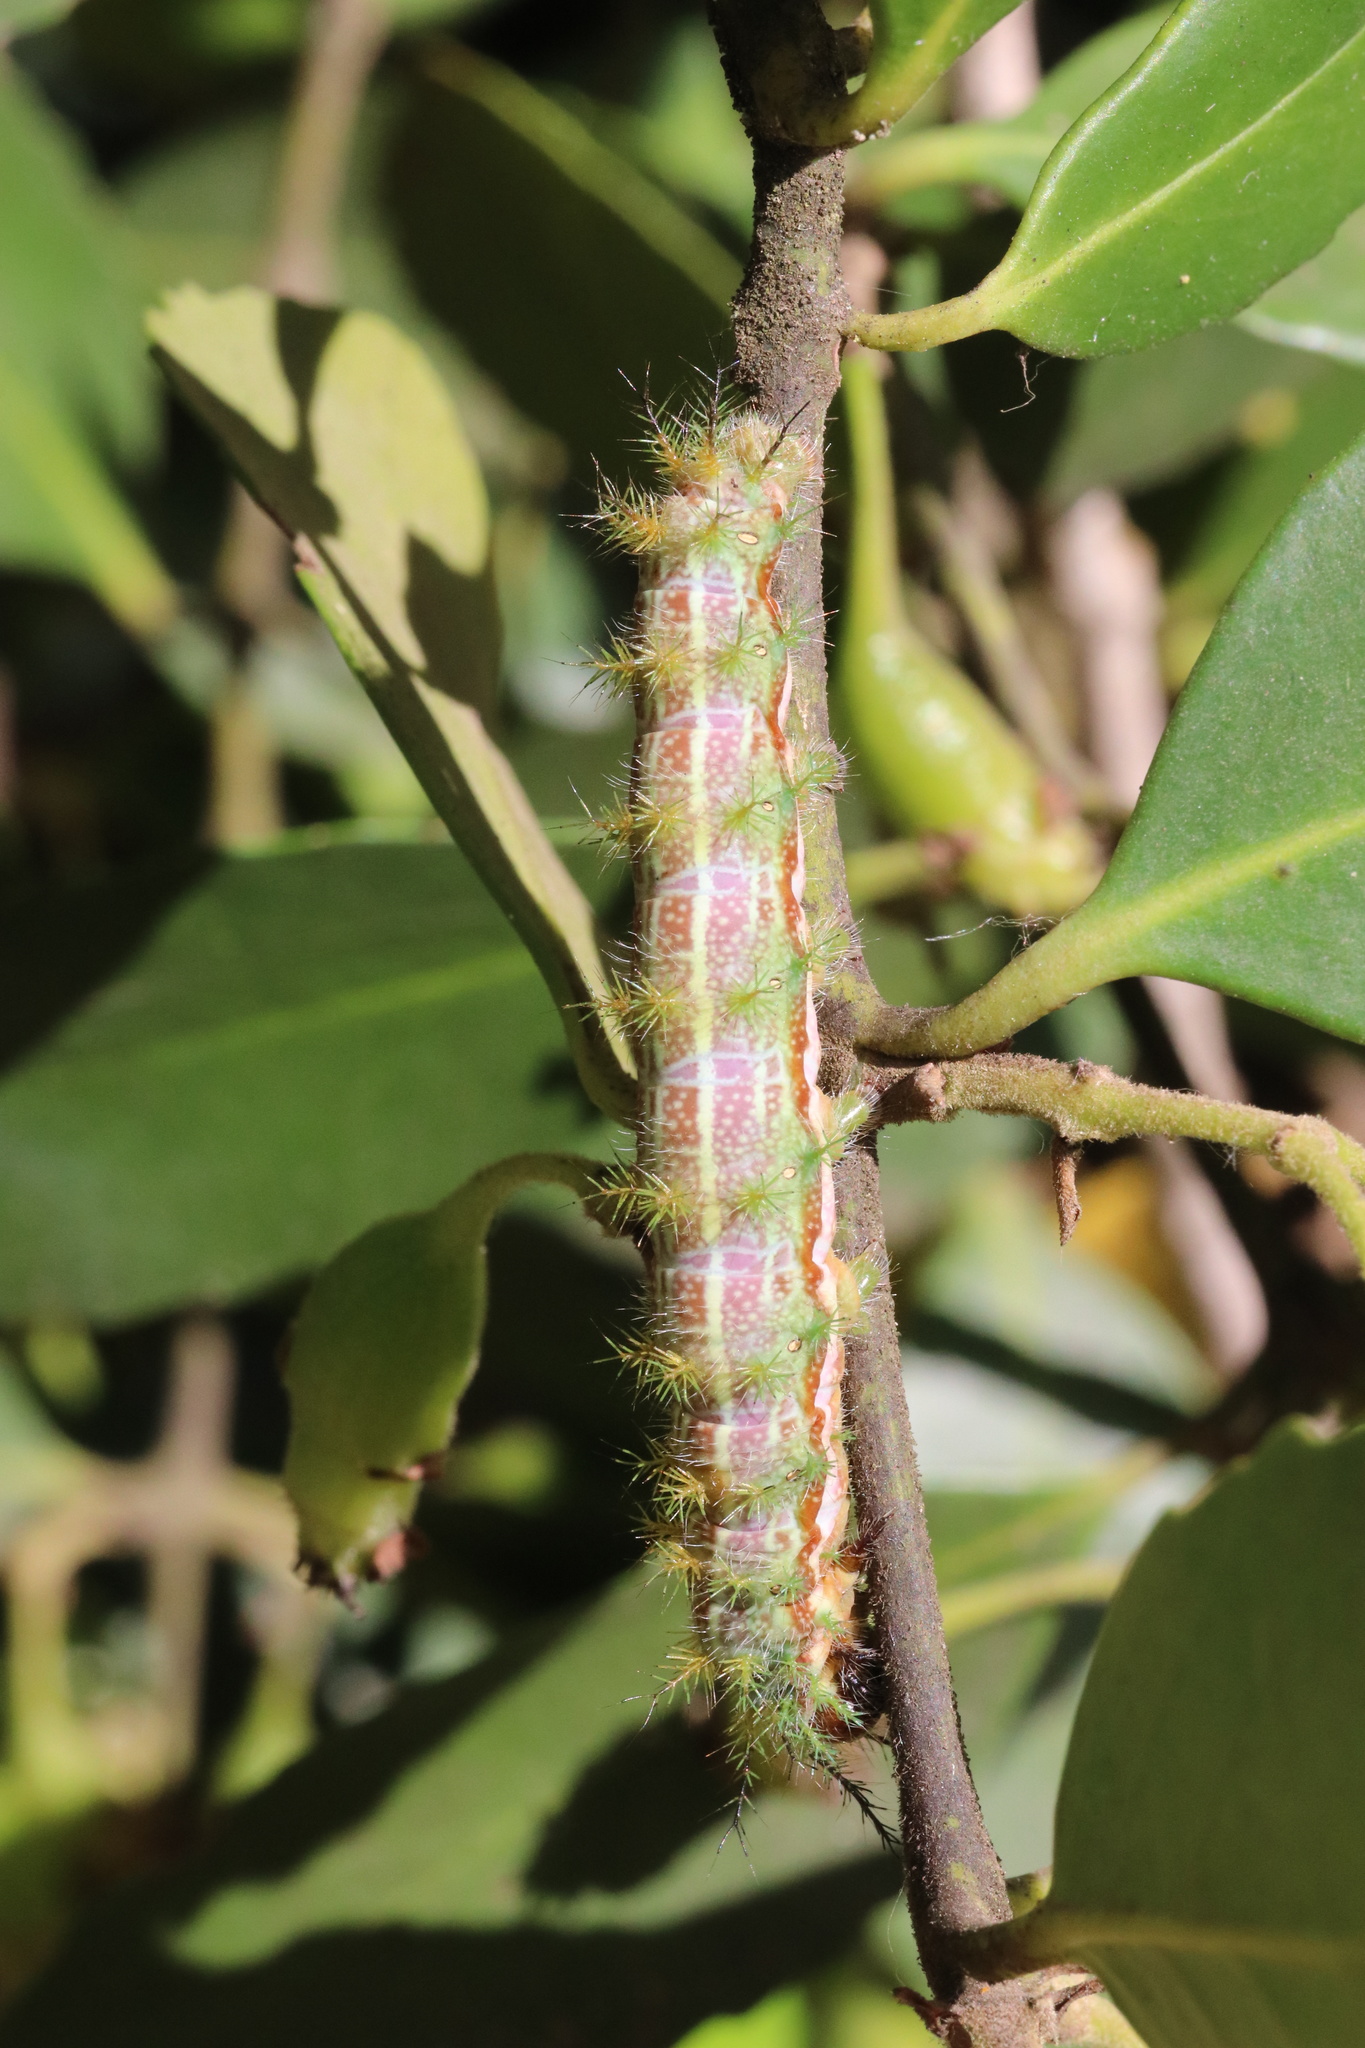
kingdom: Animalia
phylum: Arthropoda
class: Insecta
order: Lepidoptera
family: Saturniidae
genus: Ormiscodes
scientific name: Ormiscodes amphinome
